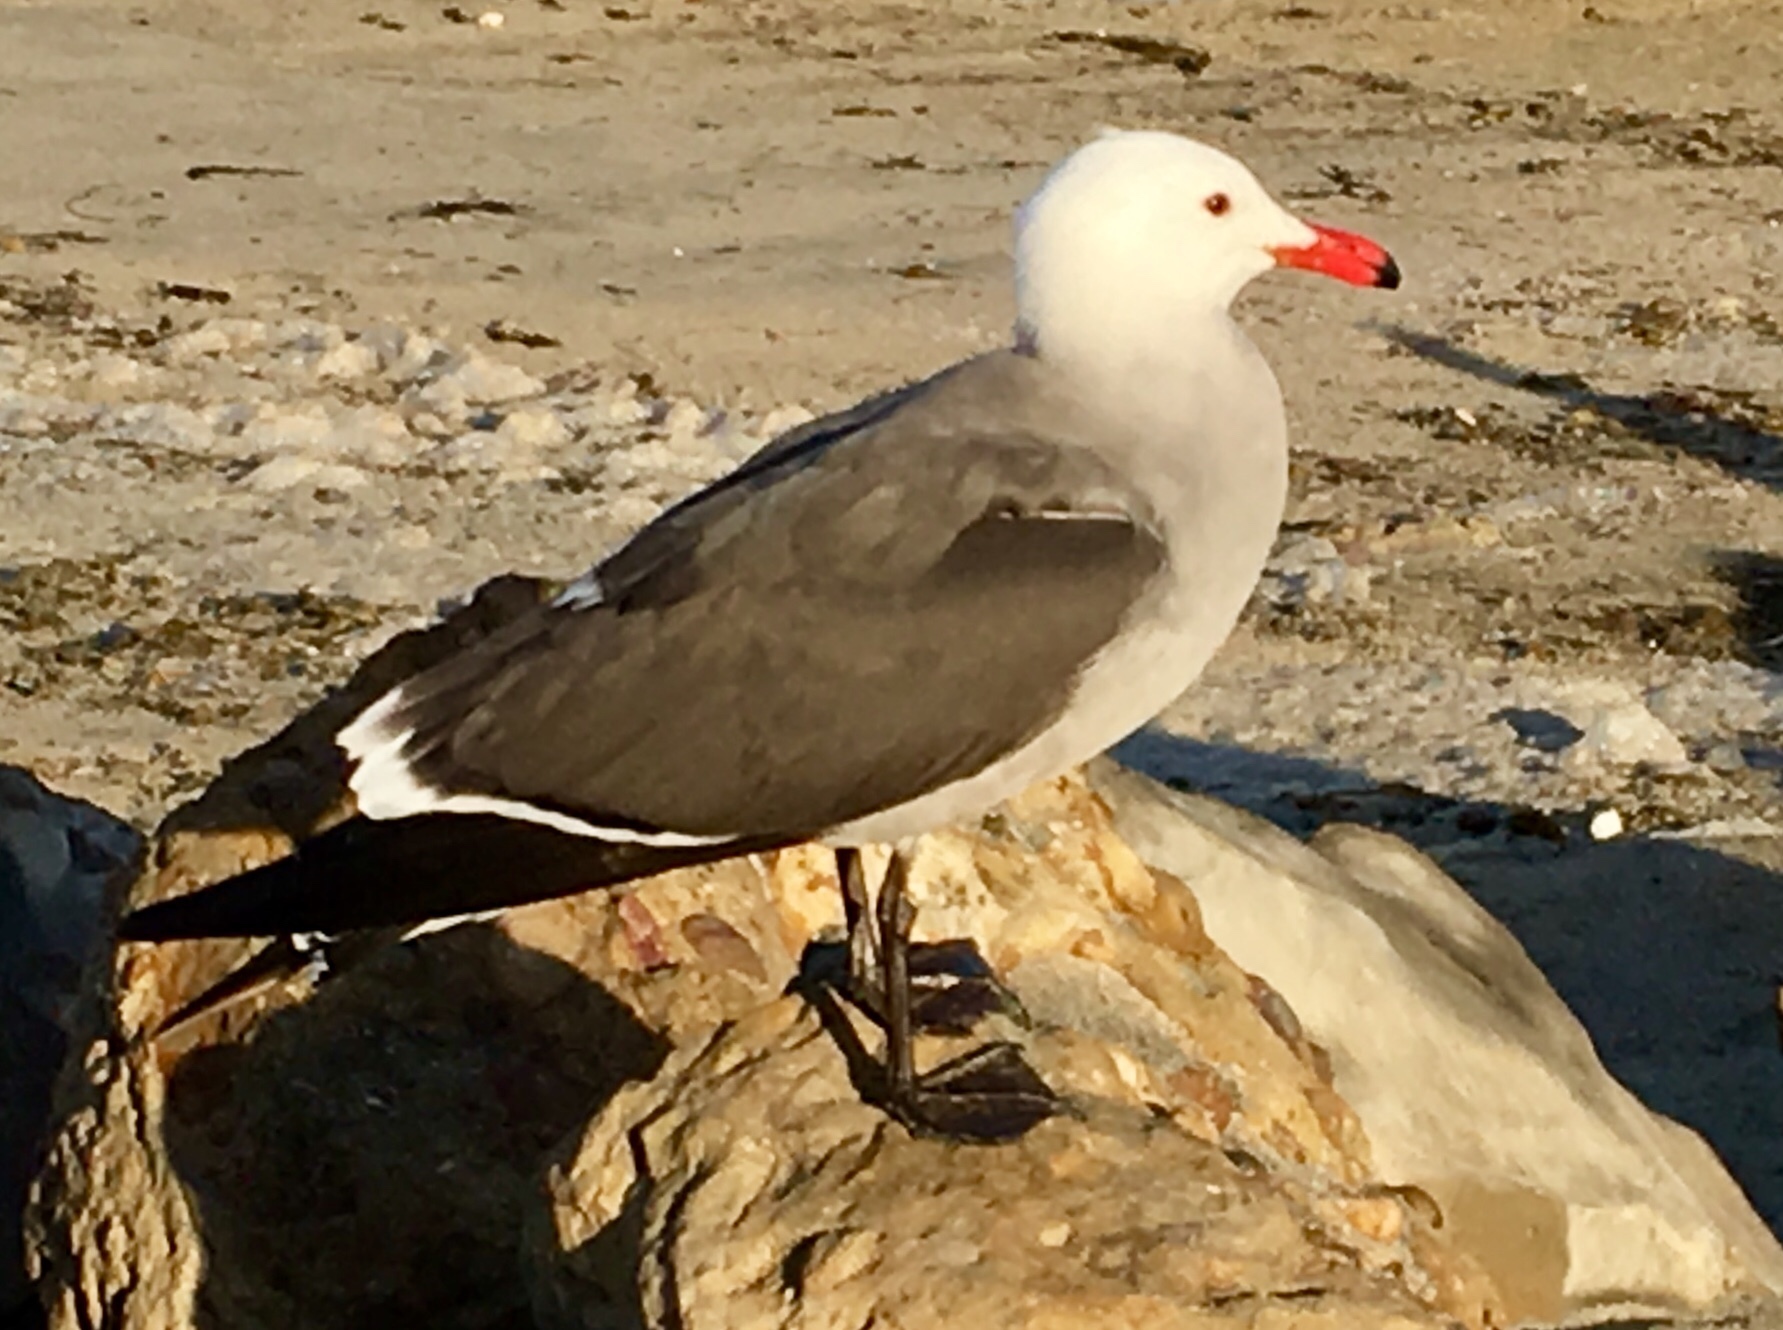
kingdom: Animalia
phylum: Chordata
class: Aves
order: Charadriiformes
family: Laridae
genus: Larus
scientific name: Larus heermanni
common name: Heermann's gull
